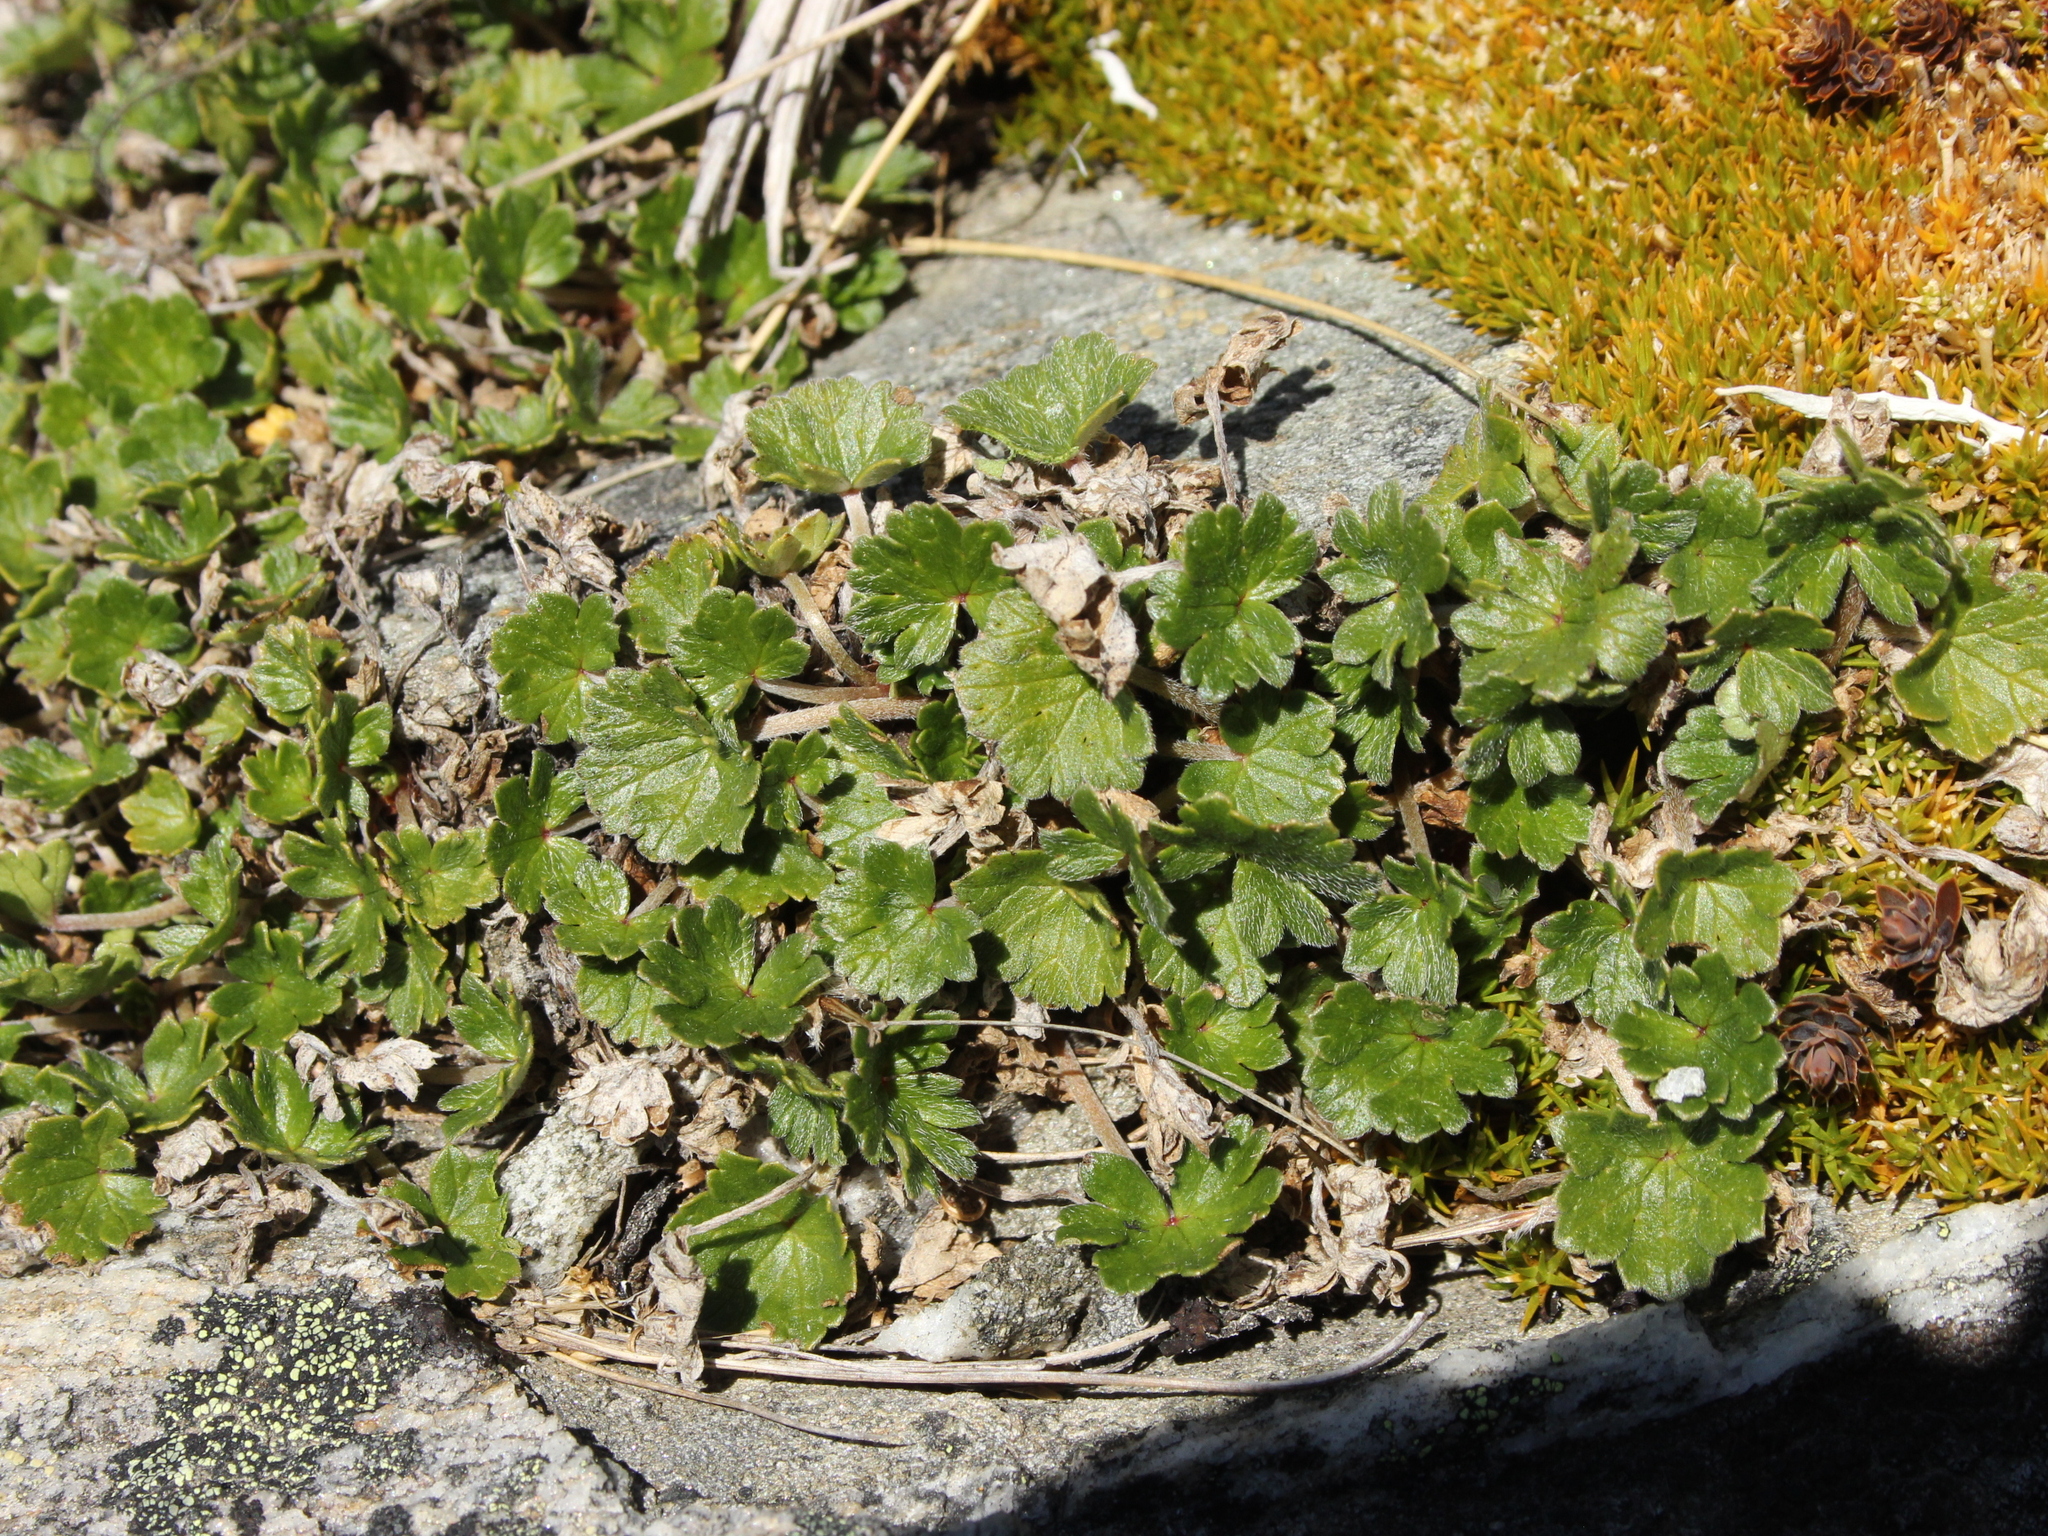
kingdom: Plantae
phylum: Tracheophyta
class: Magnoliopsida
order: Geraniales
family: Geraniaceae
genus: Geranium
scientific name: Geranium brevicaule
